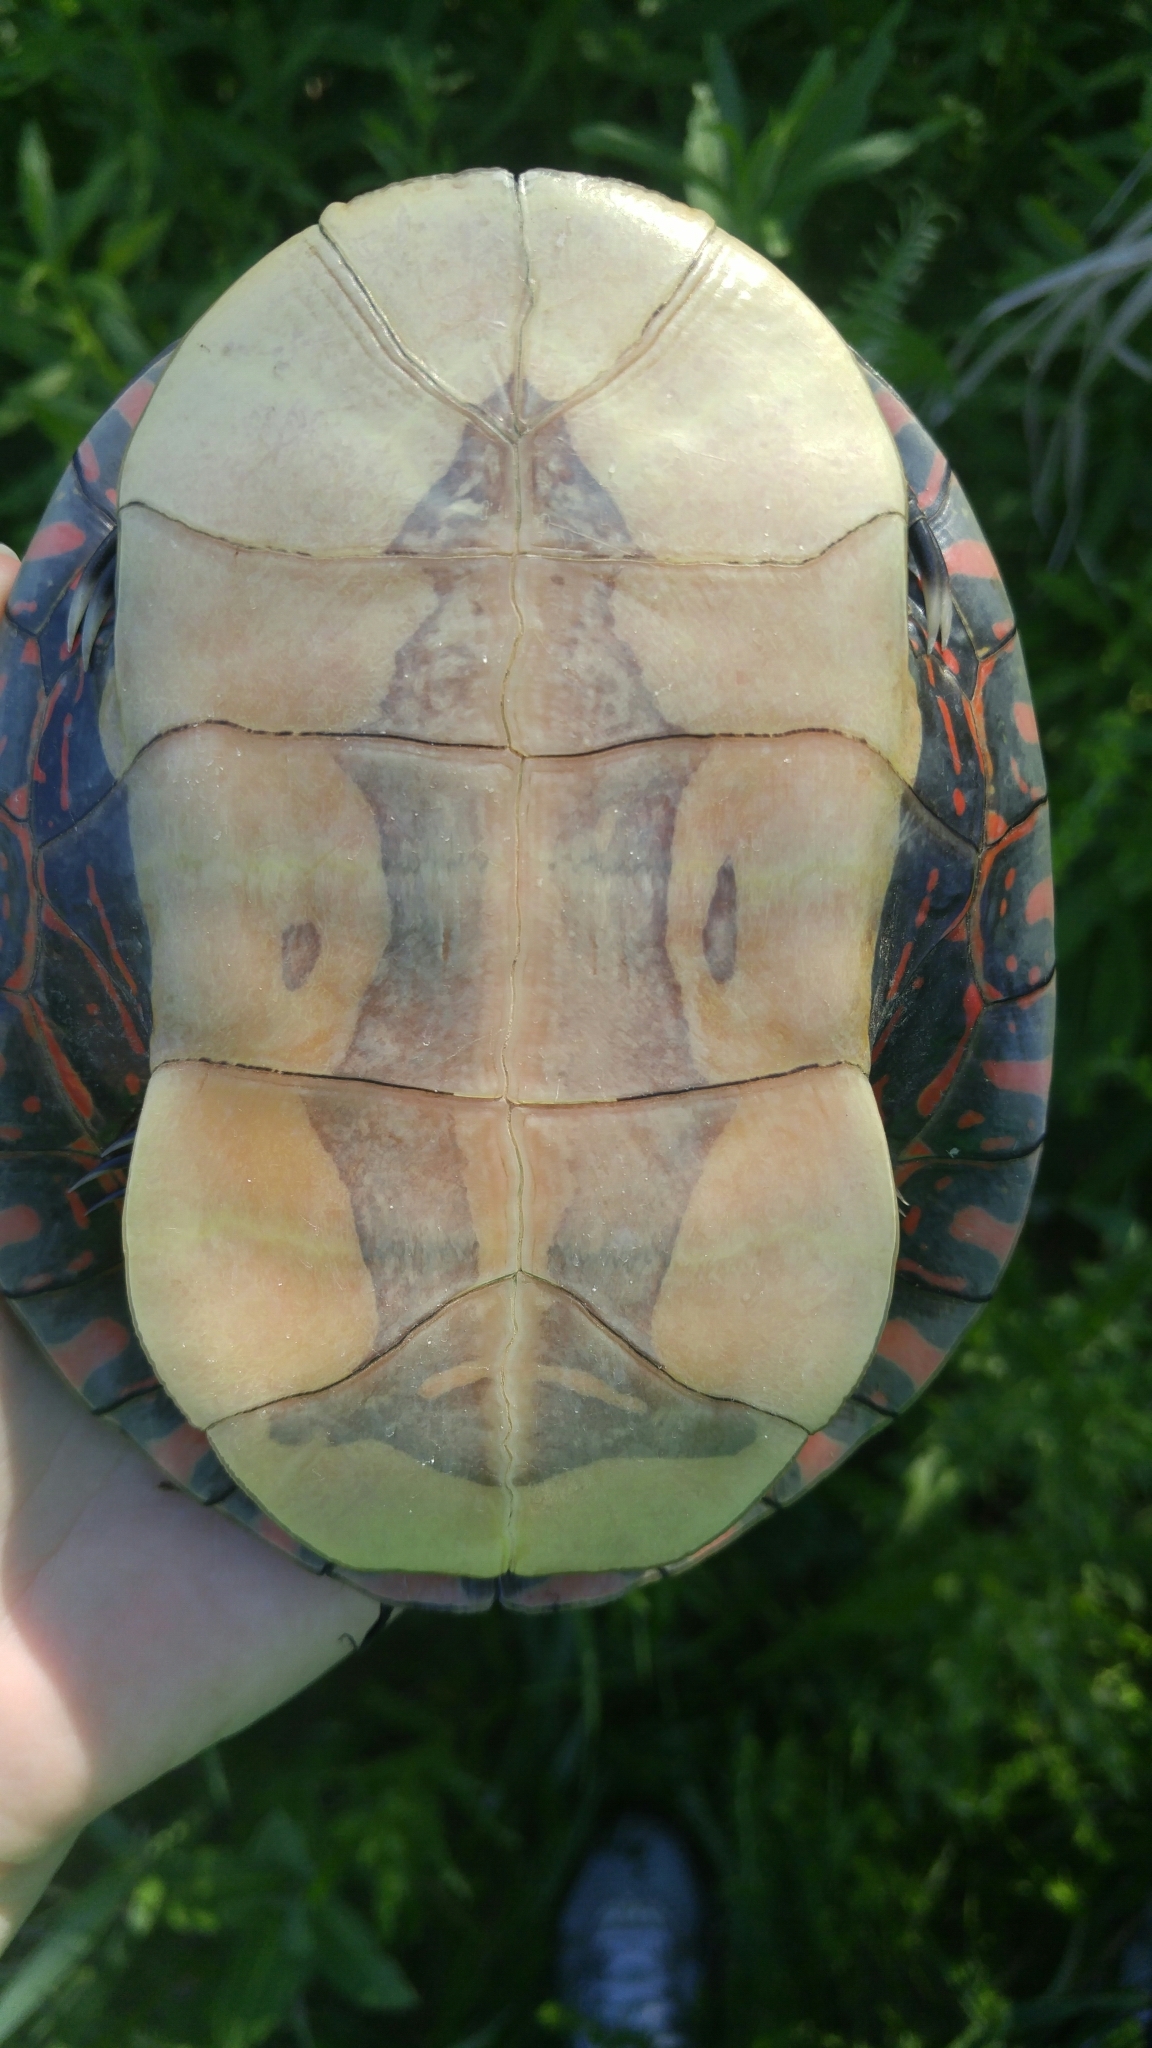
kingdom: Animalia
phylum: Chordata
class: Testudines
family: Emydidae
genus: Chrysemys
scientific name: Chrysemys picta
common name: Painted turtle
